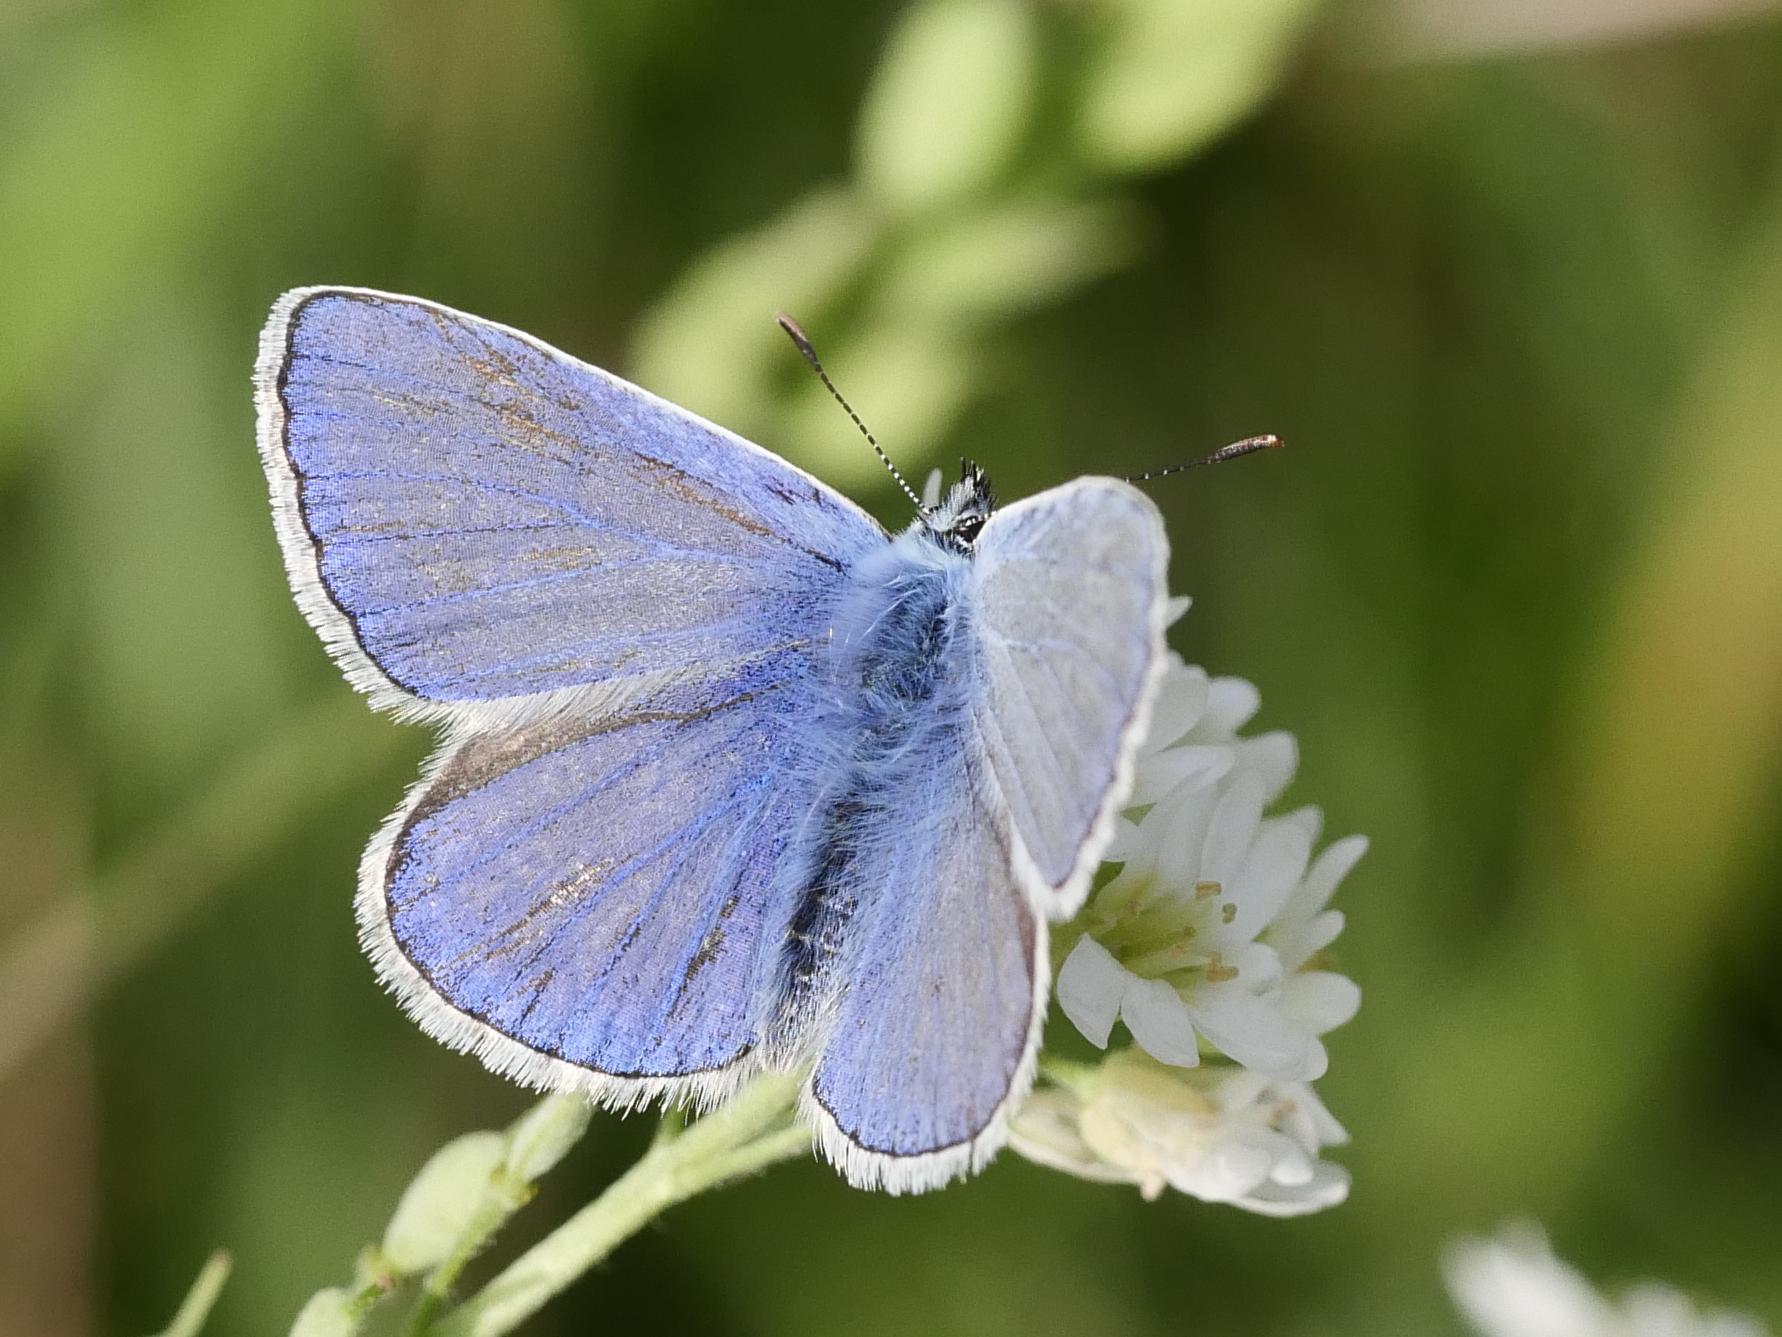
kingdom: Animalia
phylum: Arthropoda
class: Insecta
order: Lepidoptera
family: Lycaenidae
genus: Polyommatus
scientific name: Polyommatus icarus
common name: Common blue
